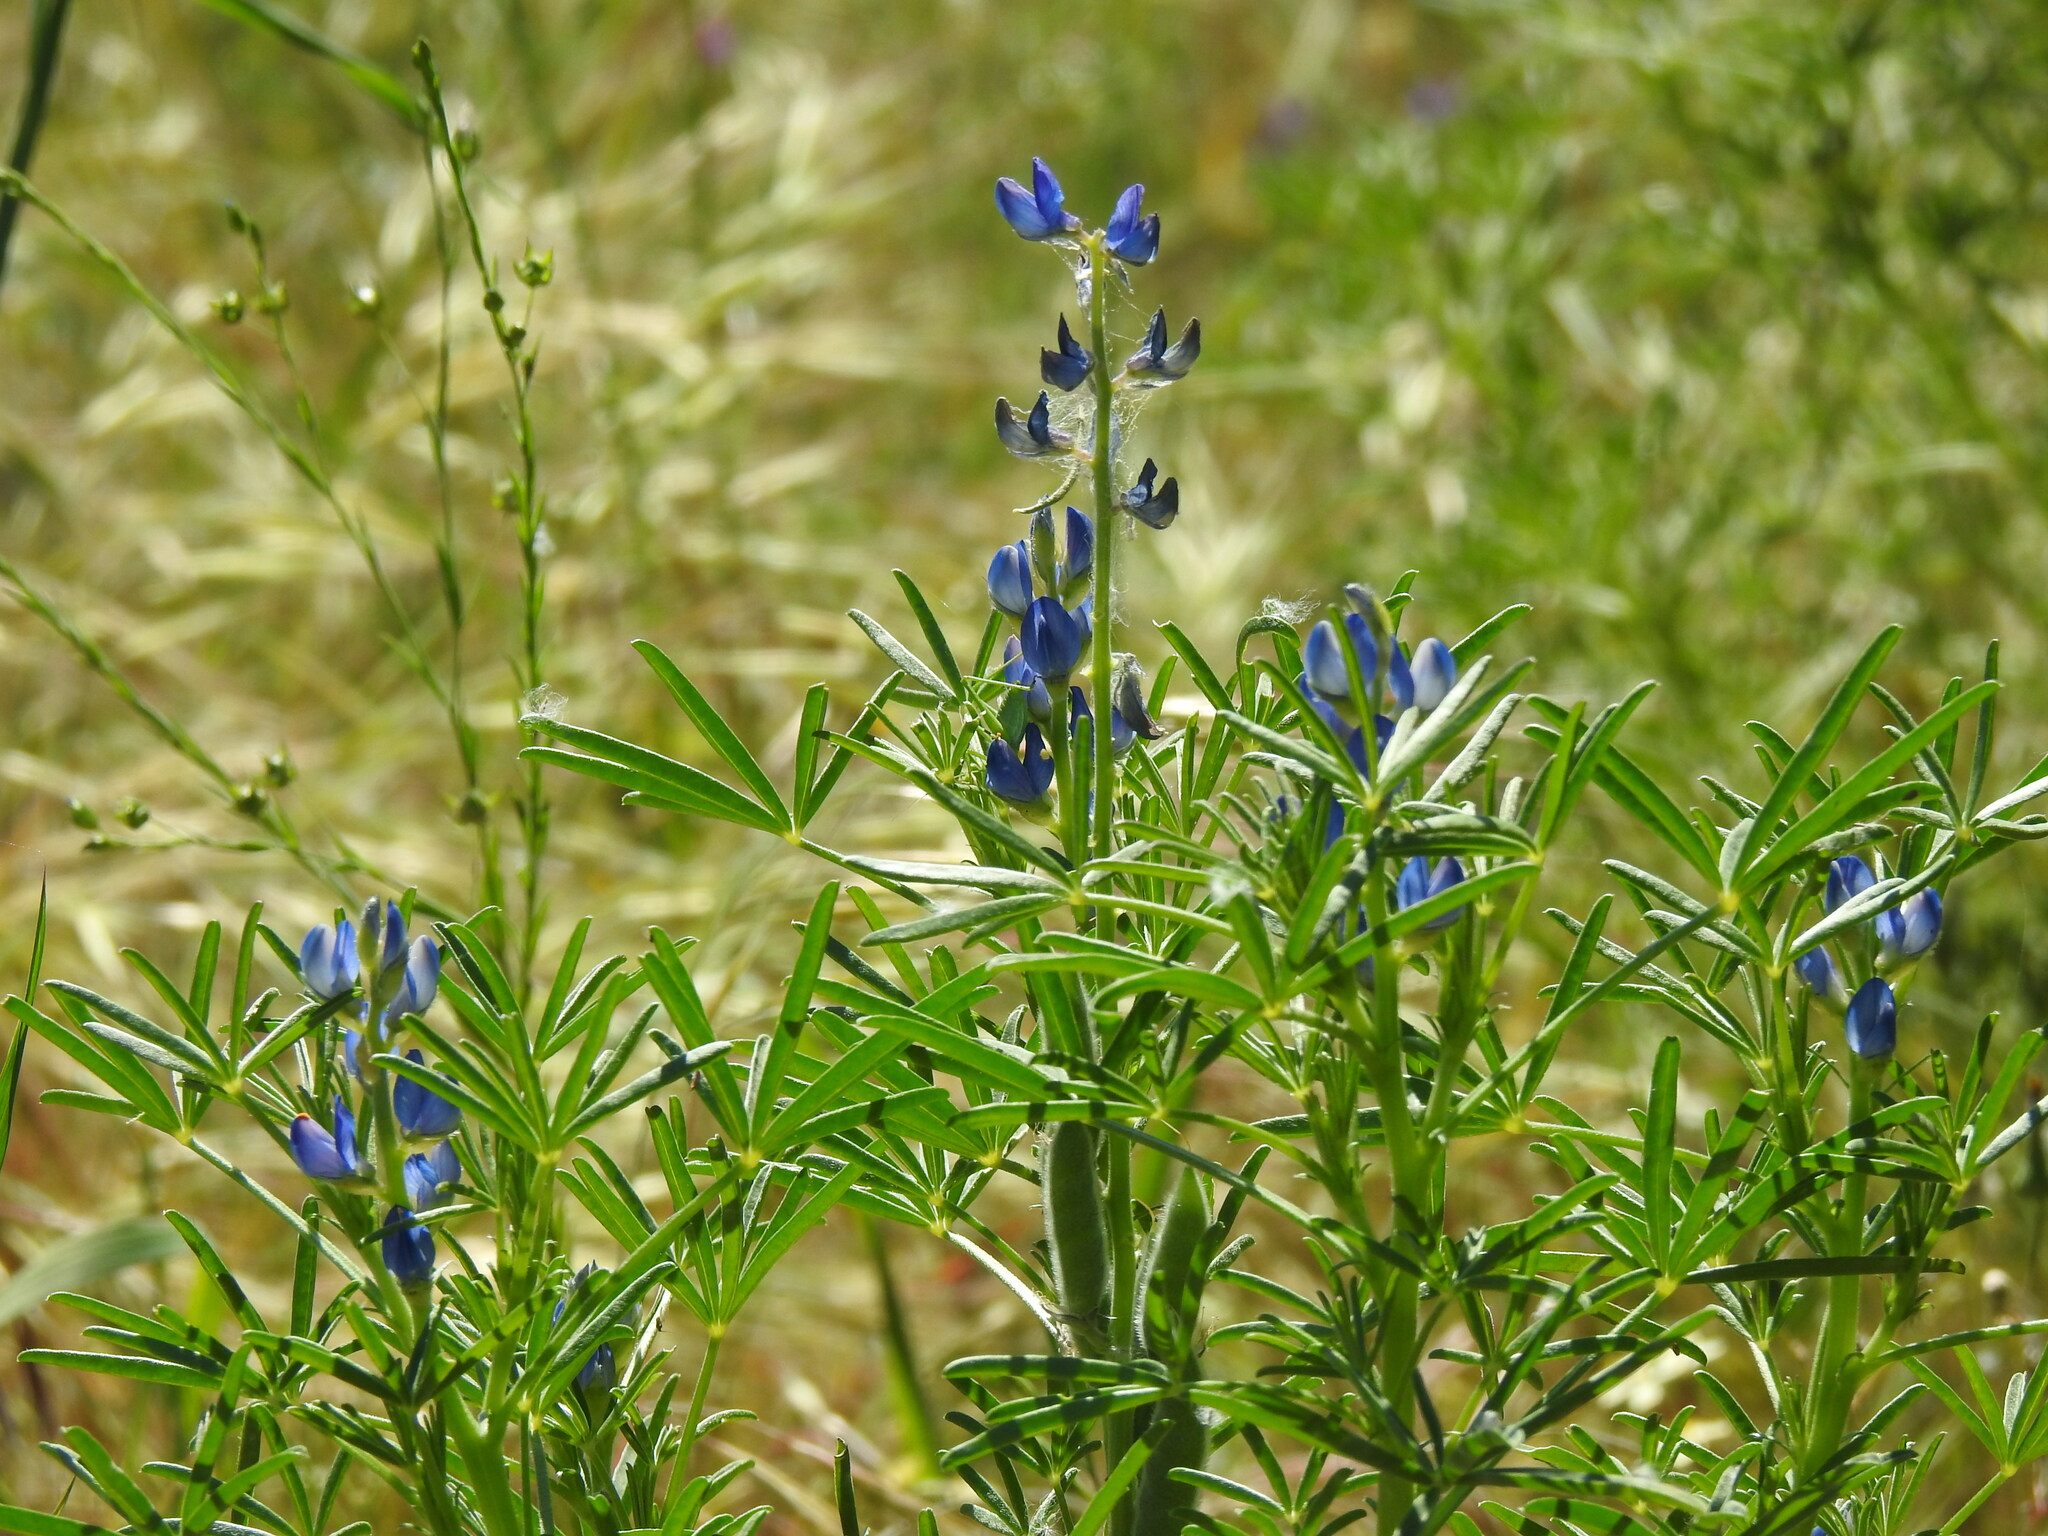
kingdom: Plantae
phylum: Tracheophyta
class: Magnoliopsida
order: Fabales
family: Fabaceae
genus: Lupinus
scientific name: Lupinus angustifolius
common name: Narrow-leaved lupin
